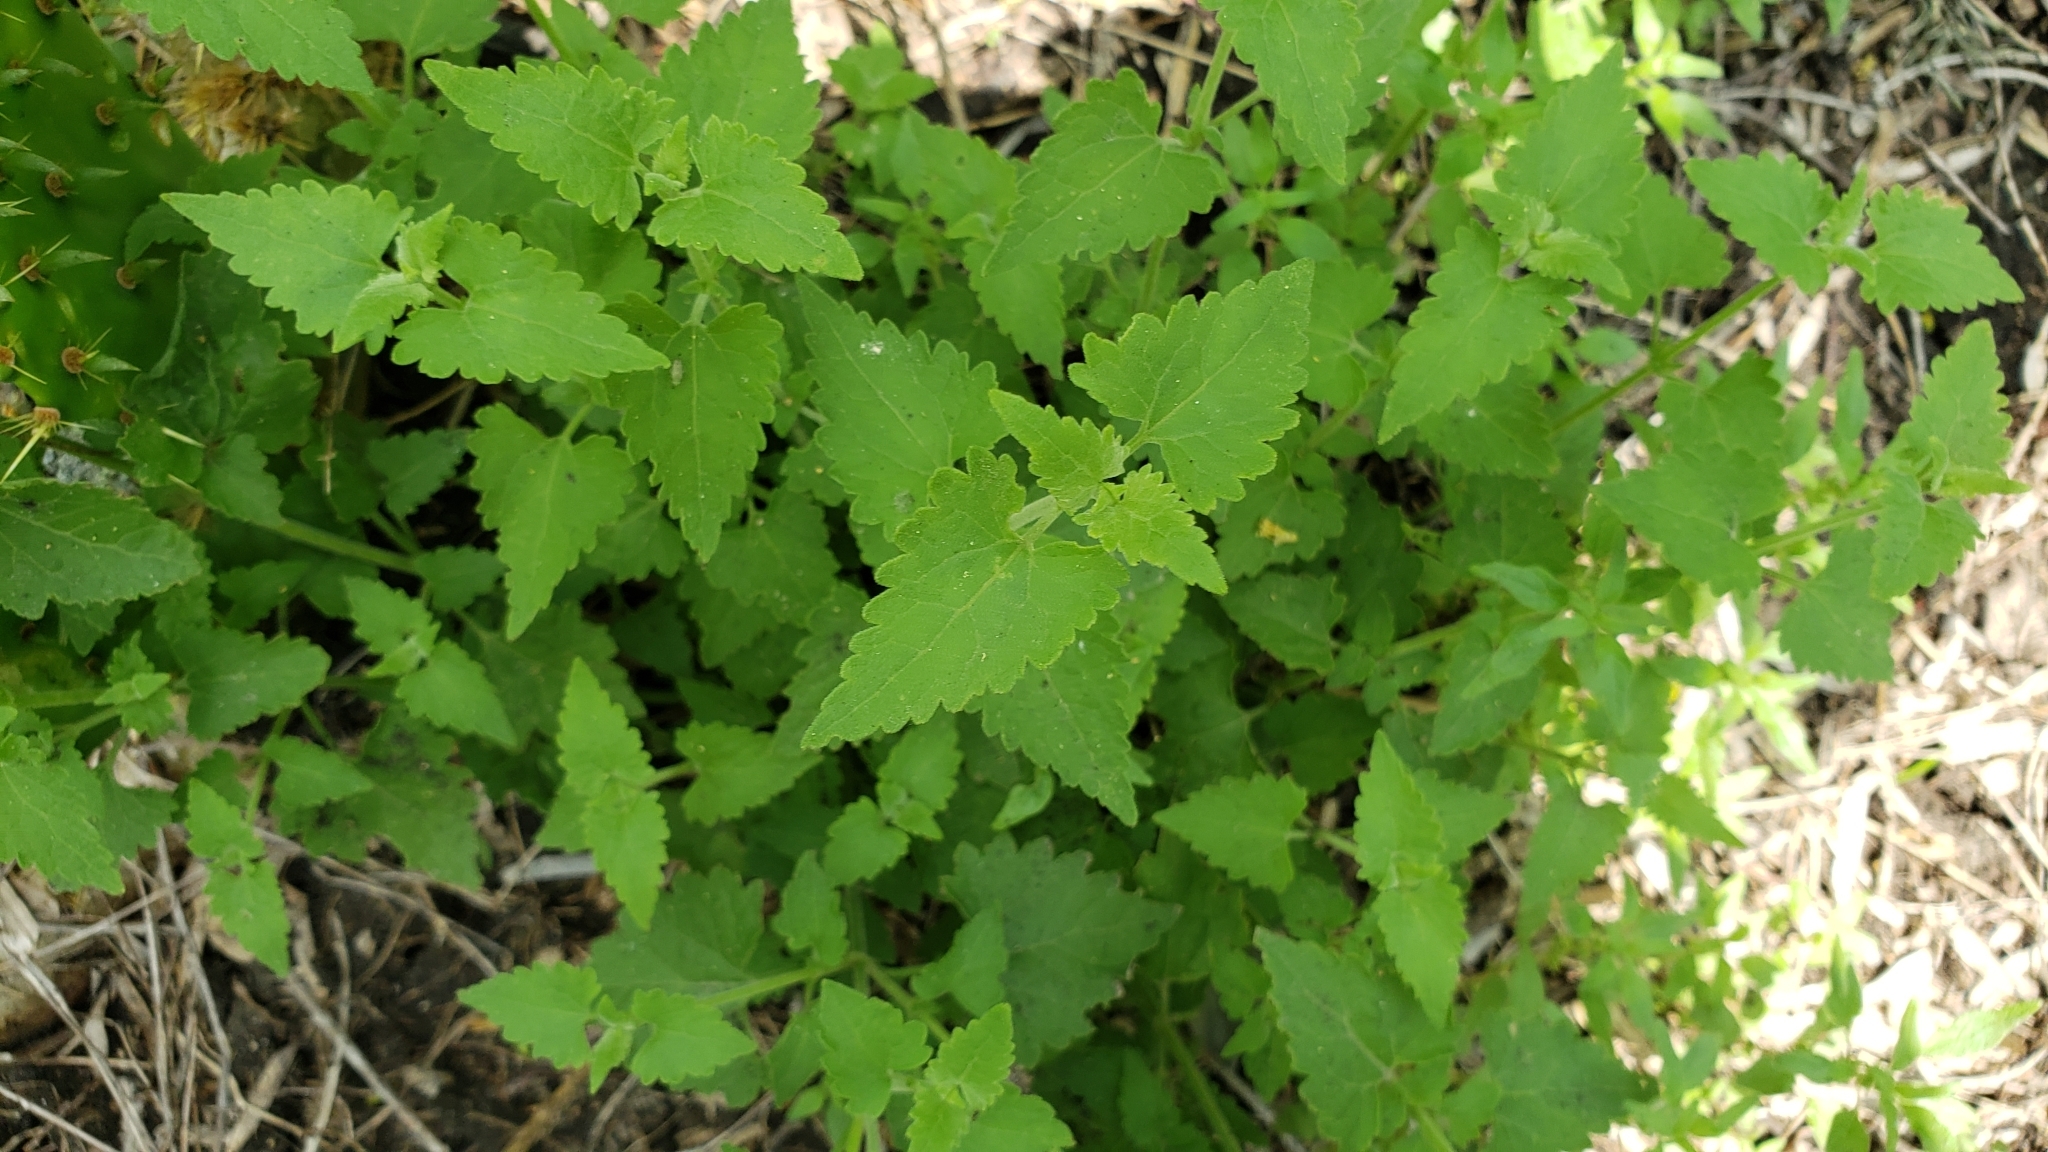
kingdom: Plantae
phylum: Tracheophyta
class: Magnoliopsida
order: Asterales
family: Asteraceae
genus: Fleischmannia
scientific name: Fleischmannia incarnata
